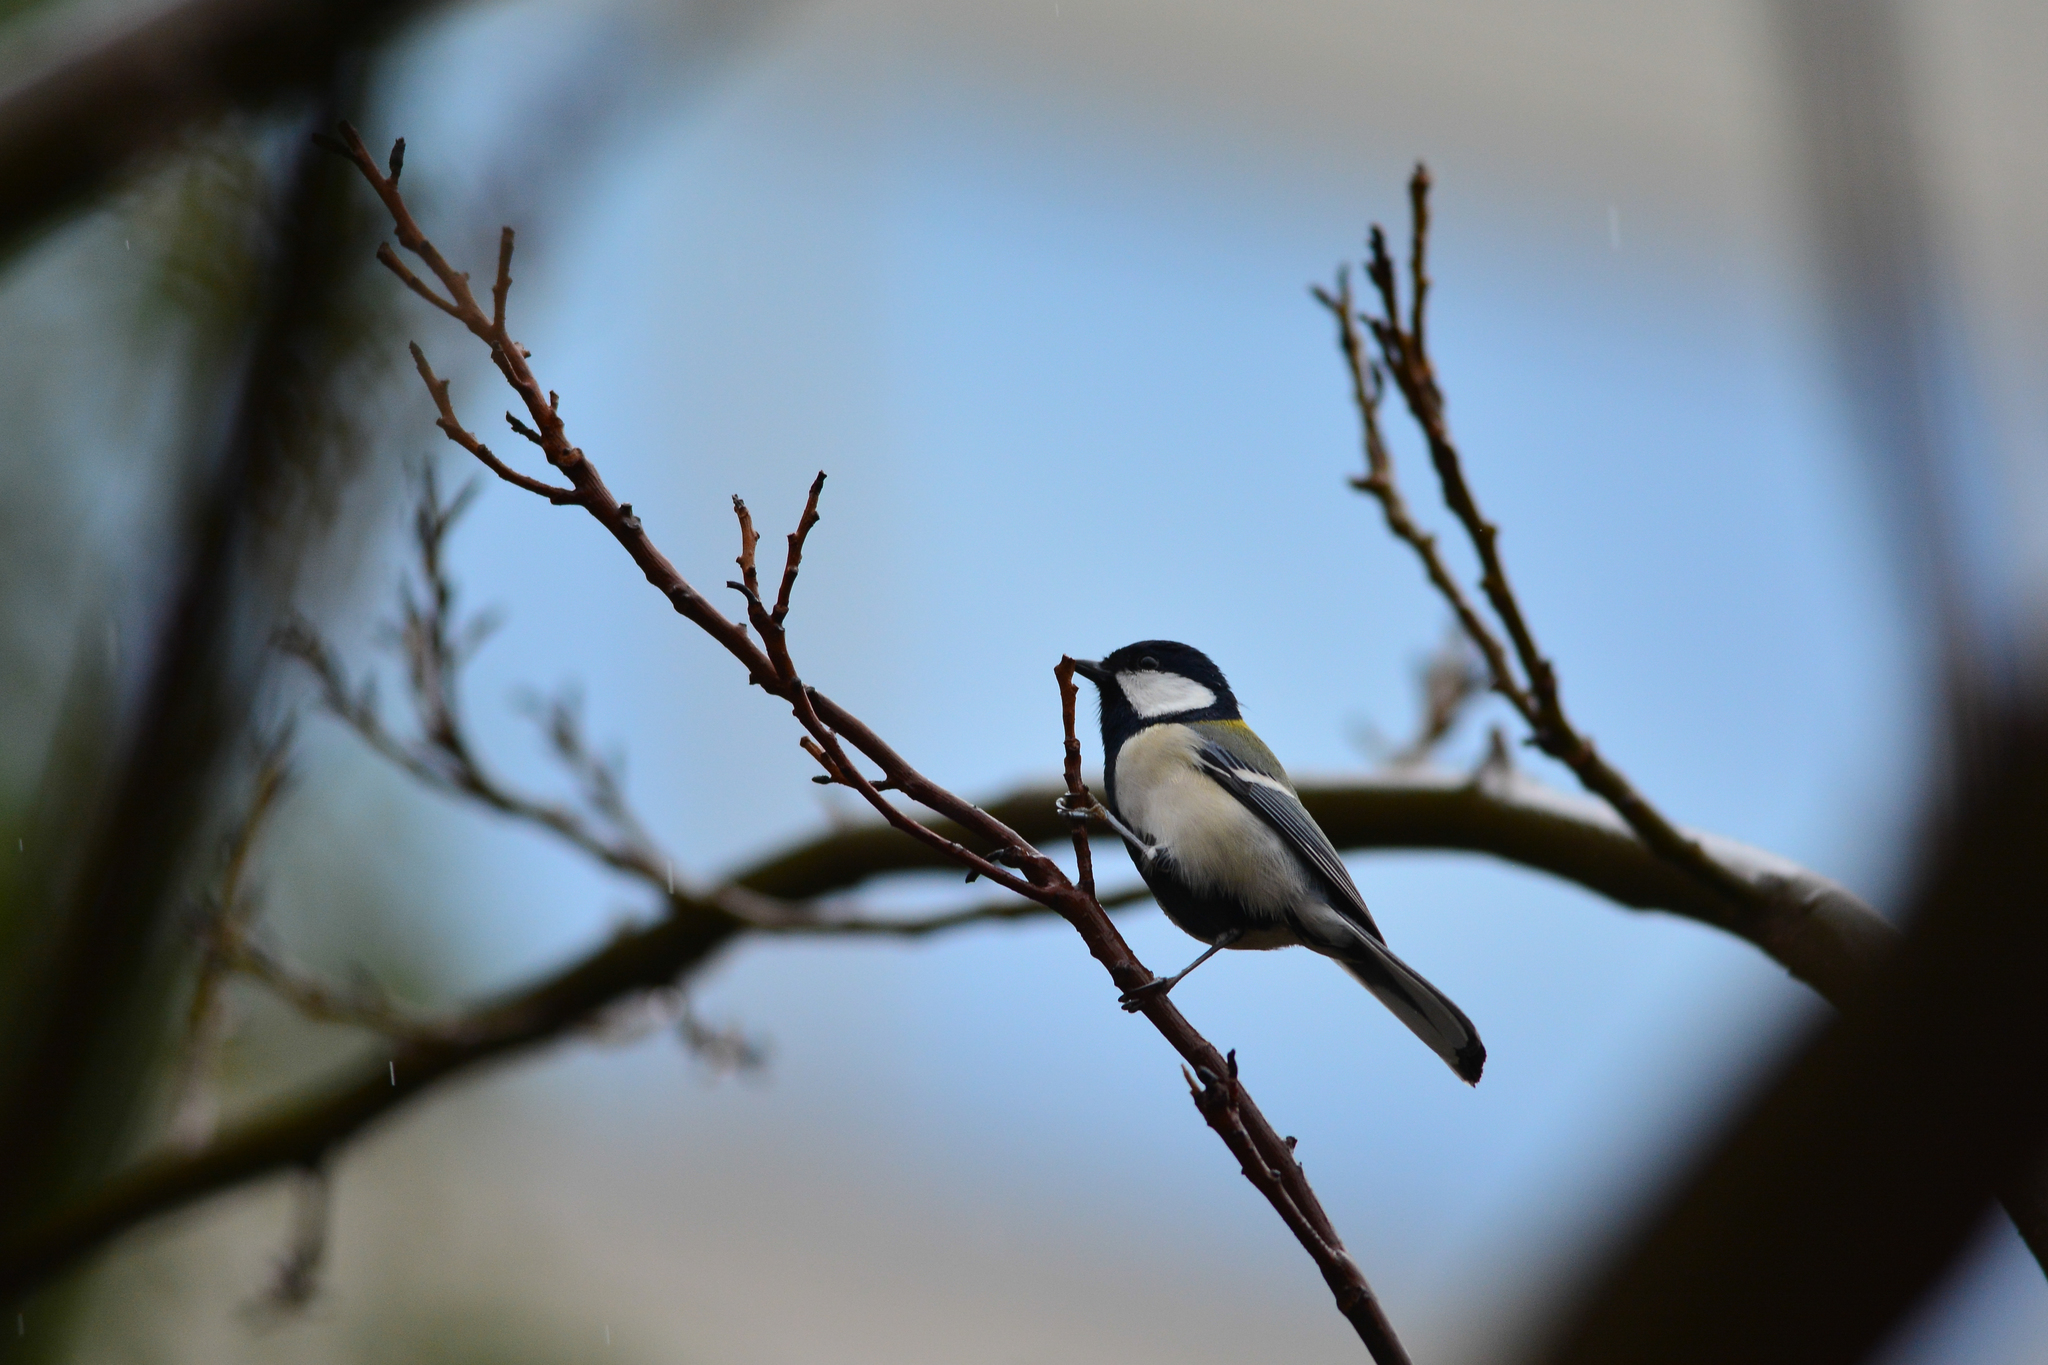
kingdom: Animalia
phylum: Chordata
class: Aves
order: Passeriformes
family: Paridae
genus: Parus
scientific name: Parus minor
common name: Japanese tit
